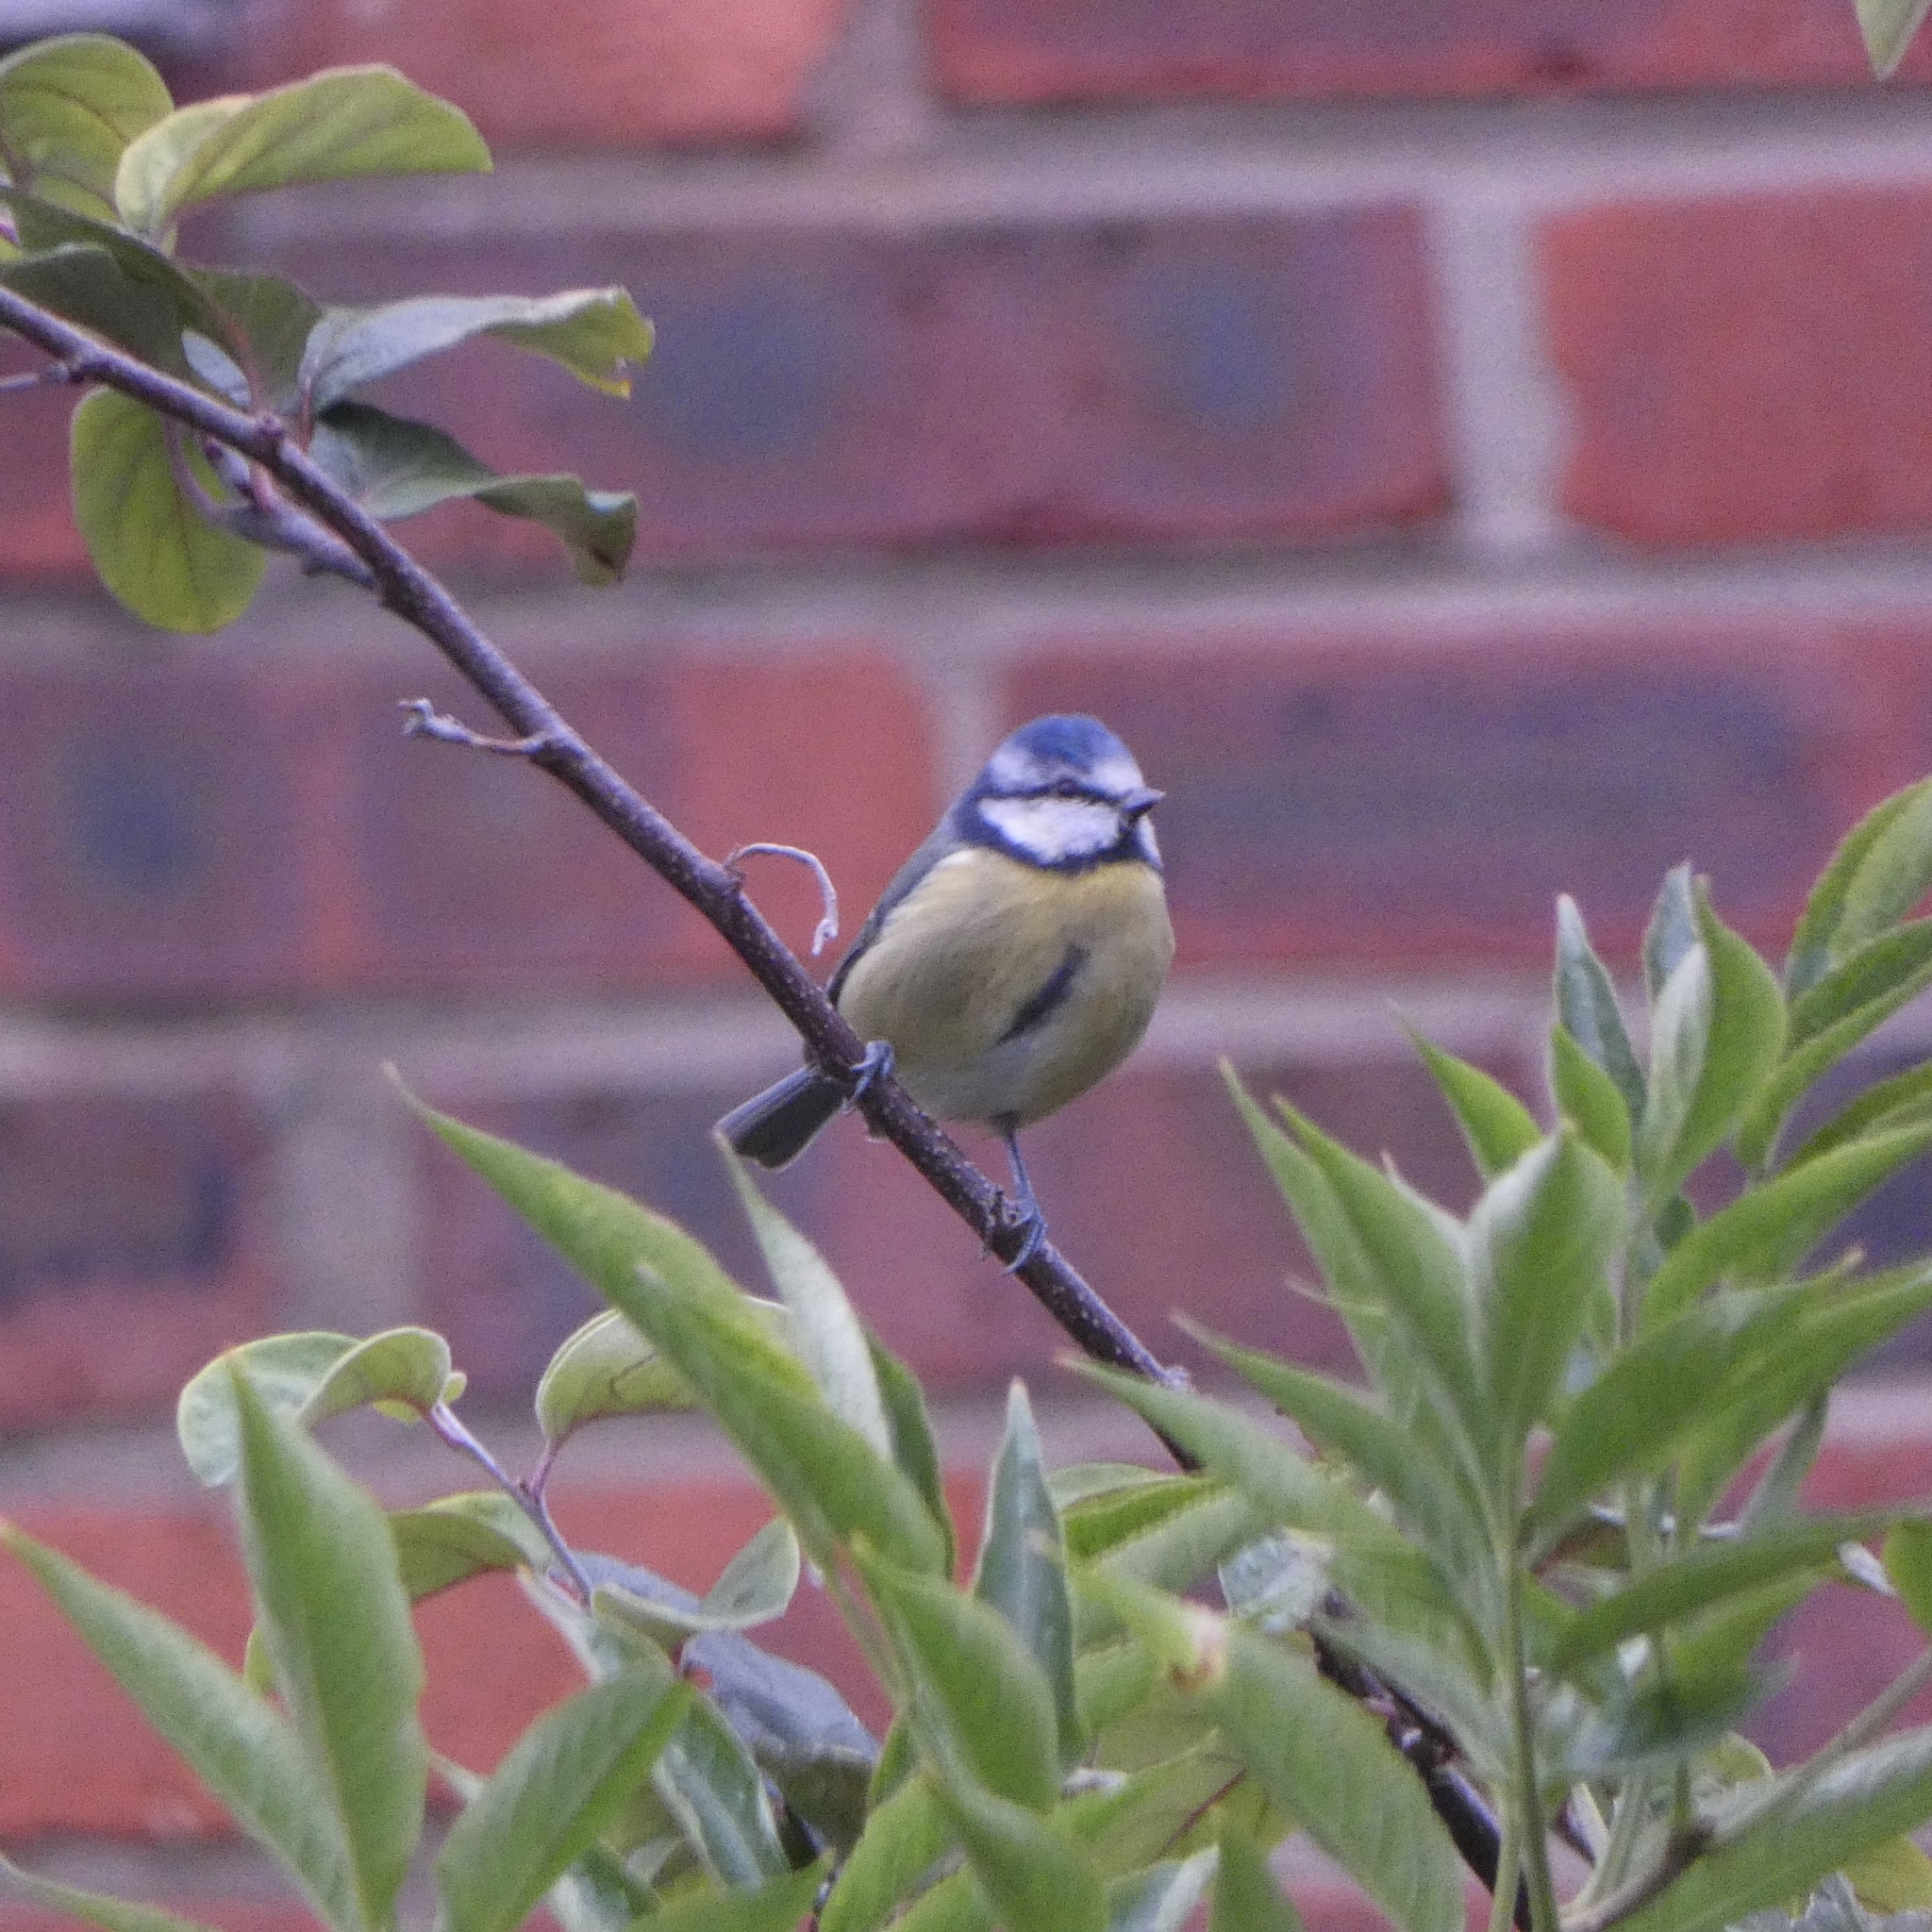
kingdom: Animalia
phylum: Chordata
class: Aves
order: Passeriformes
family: Paridae
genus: Cyanistes
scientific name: Cyanistes caeruleus
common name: Eurasian blue tit
